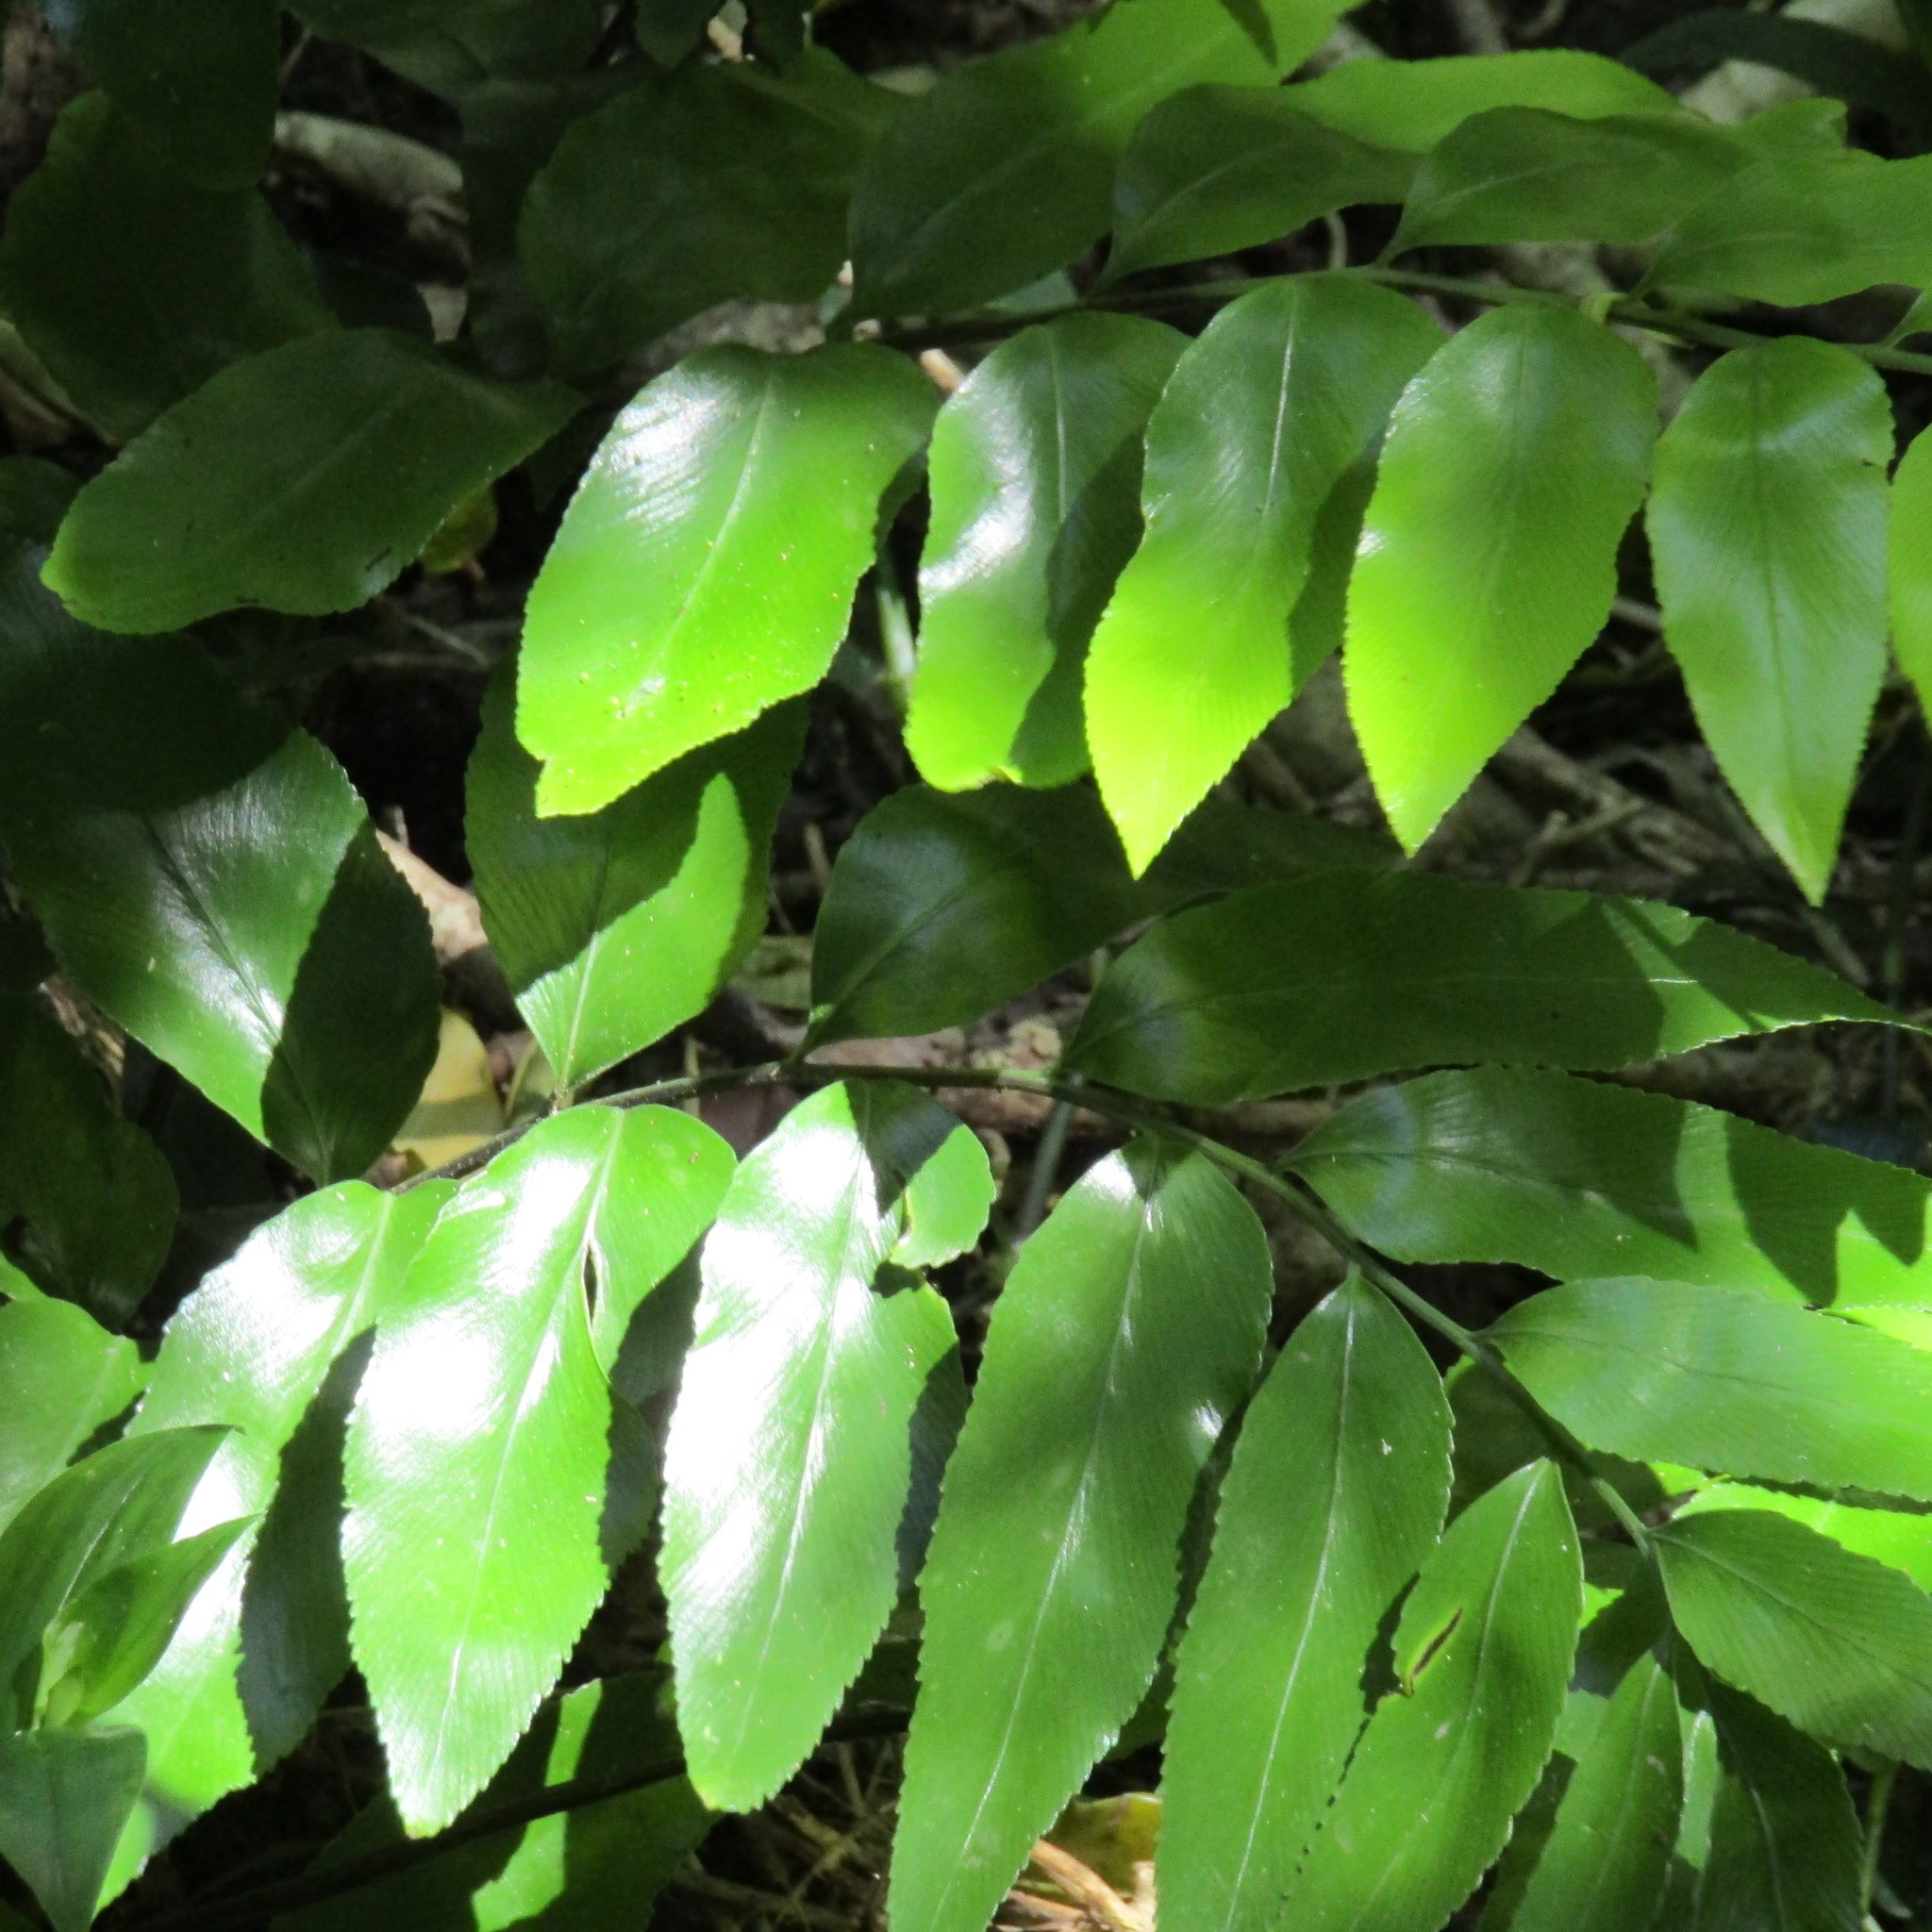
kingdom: Plantae
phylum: Tracheophyta
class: Polypodiopsida
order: Polypodiales
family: Aspleniaceae
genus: Asplenium
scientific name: Asplenium oblongifolium
